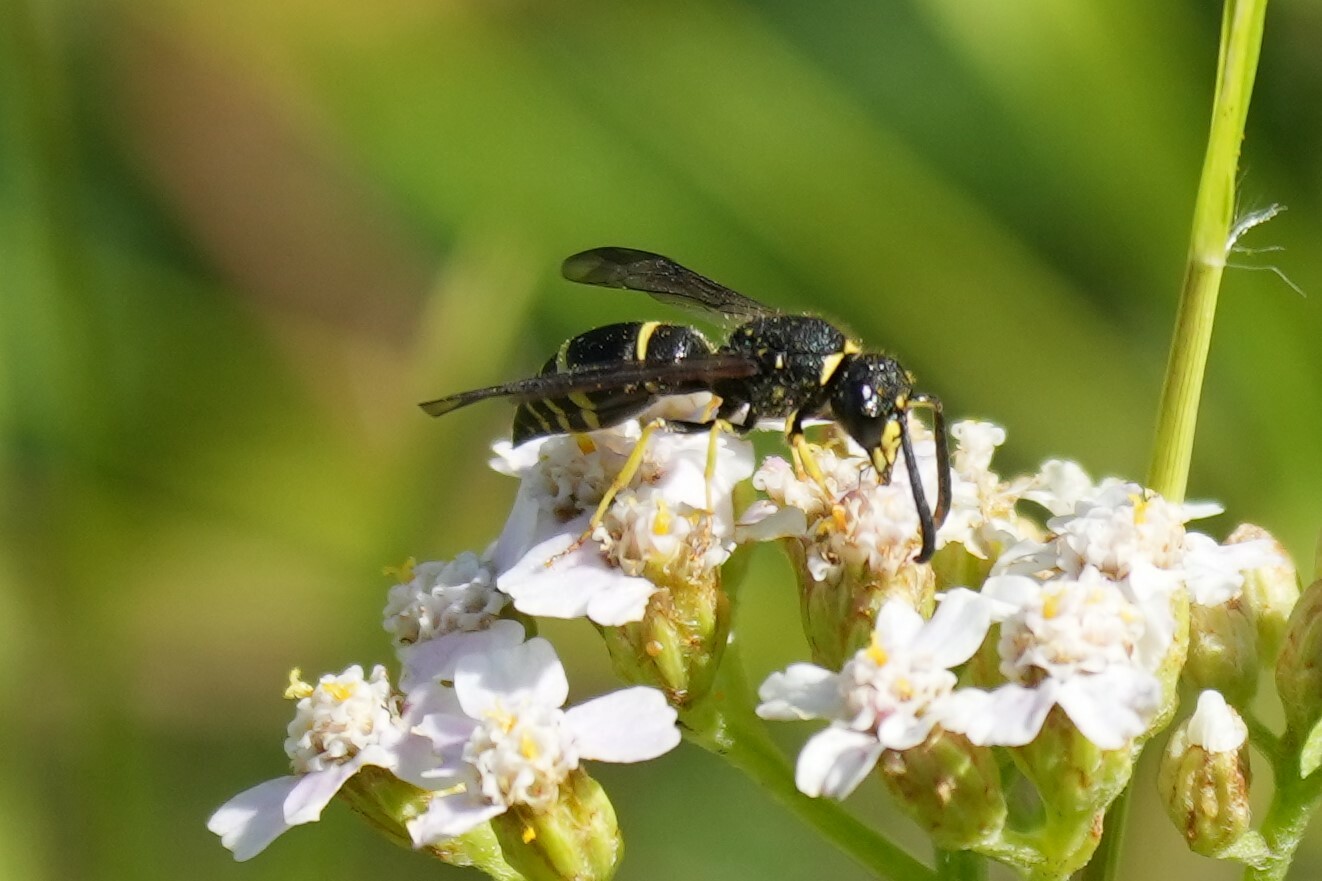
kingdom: Animalia
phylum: Arthropoda
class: Insecta
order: Hymenoptera
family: Vespidae
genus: Ancistrocerus
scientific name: Ancistrocerus
